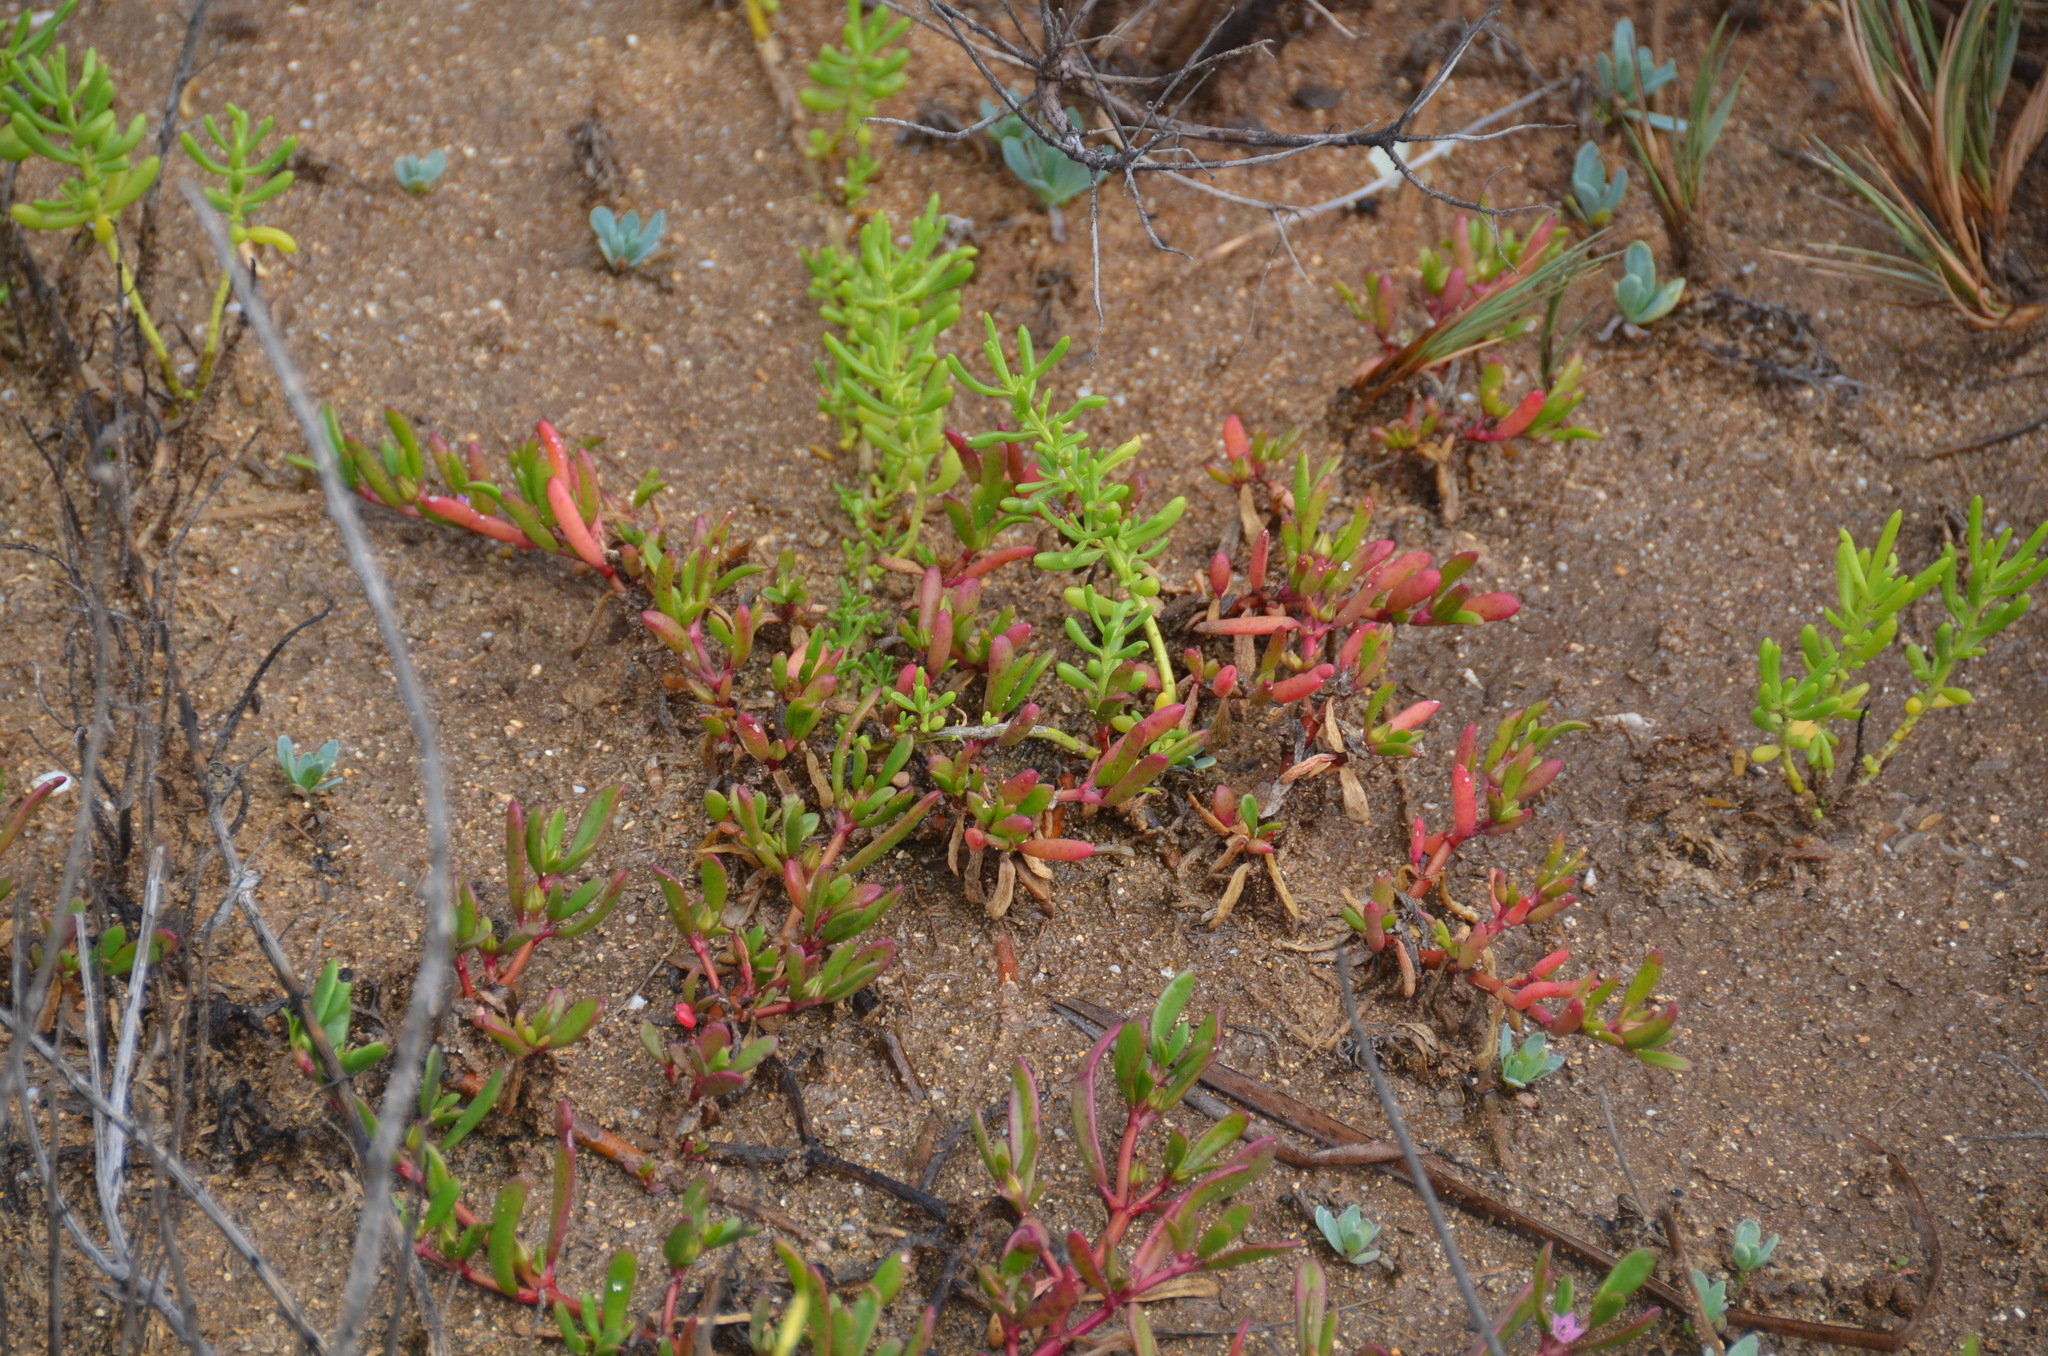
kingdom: Plantae
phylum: Tracheophyta
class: Magnoliopsida
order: Brassicales
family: Bataceae
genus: Batis
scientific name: Batis maritima
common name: Turtleweed
